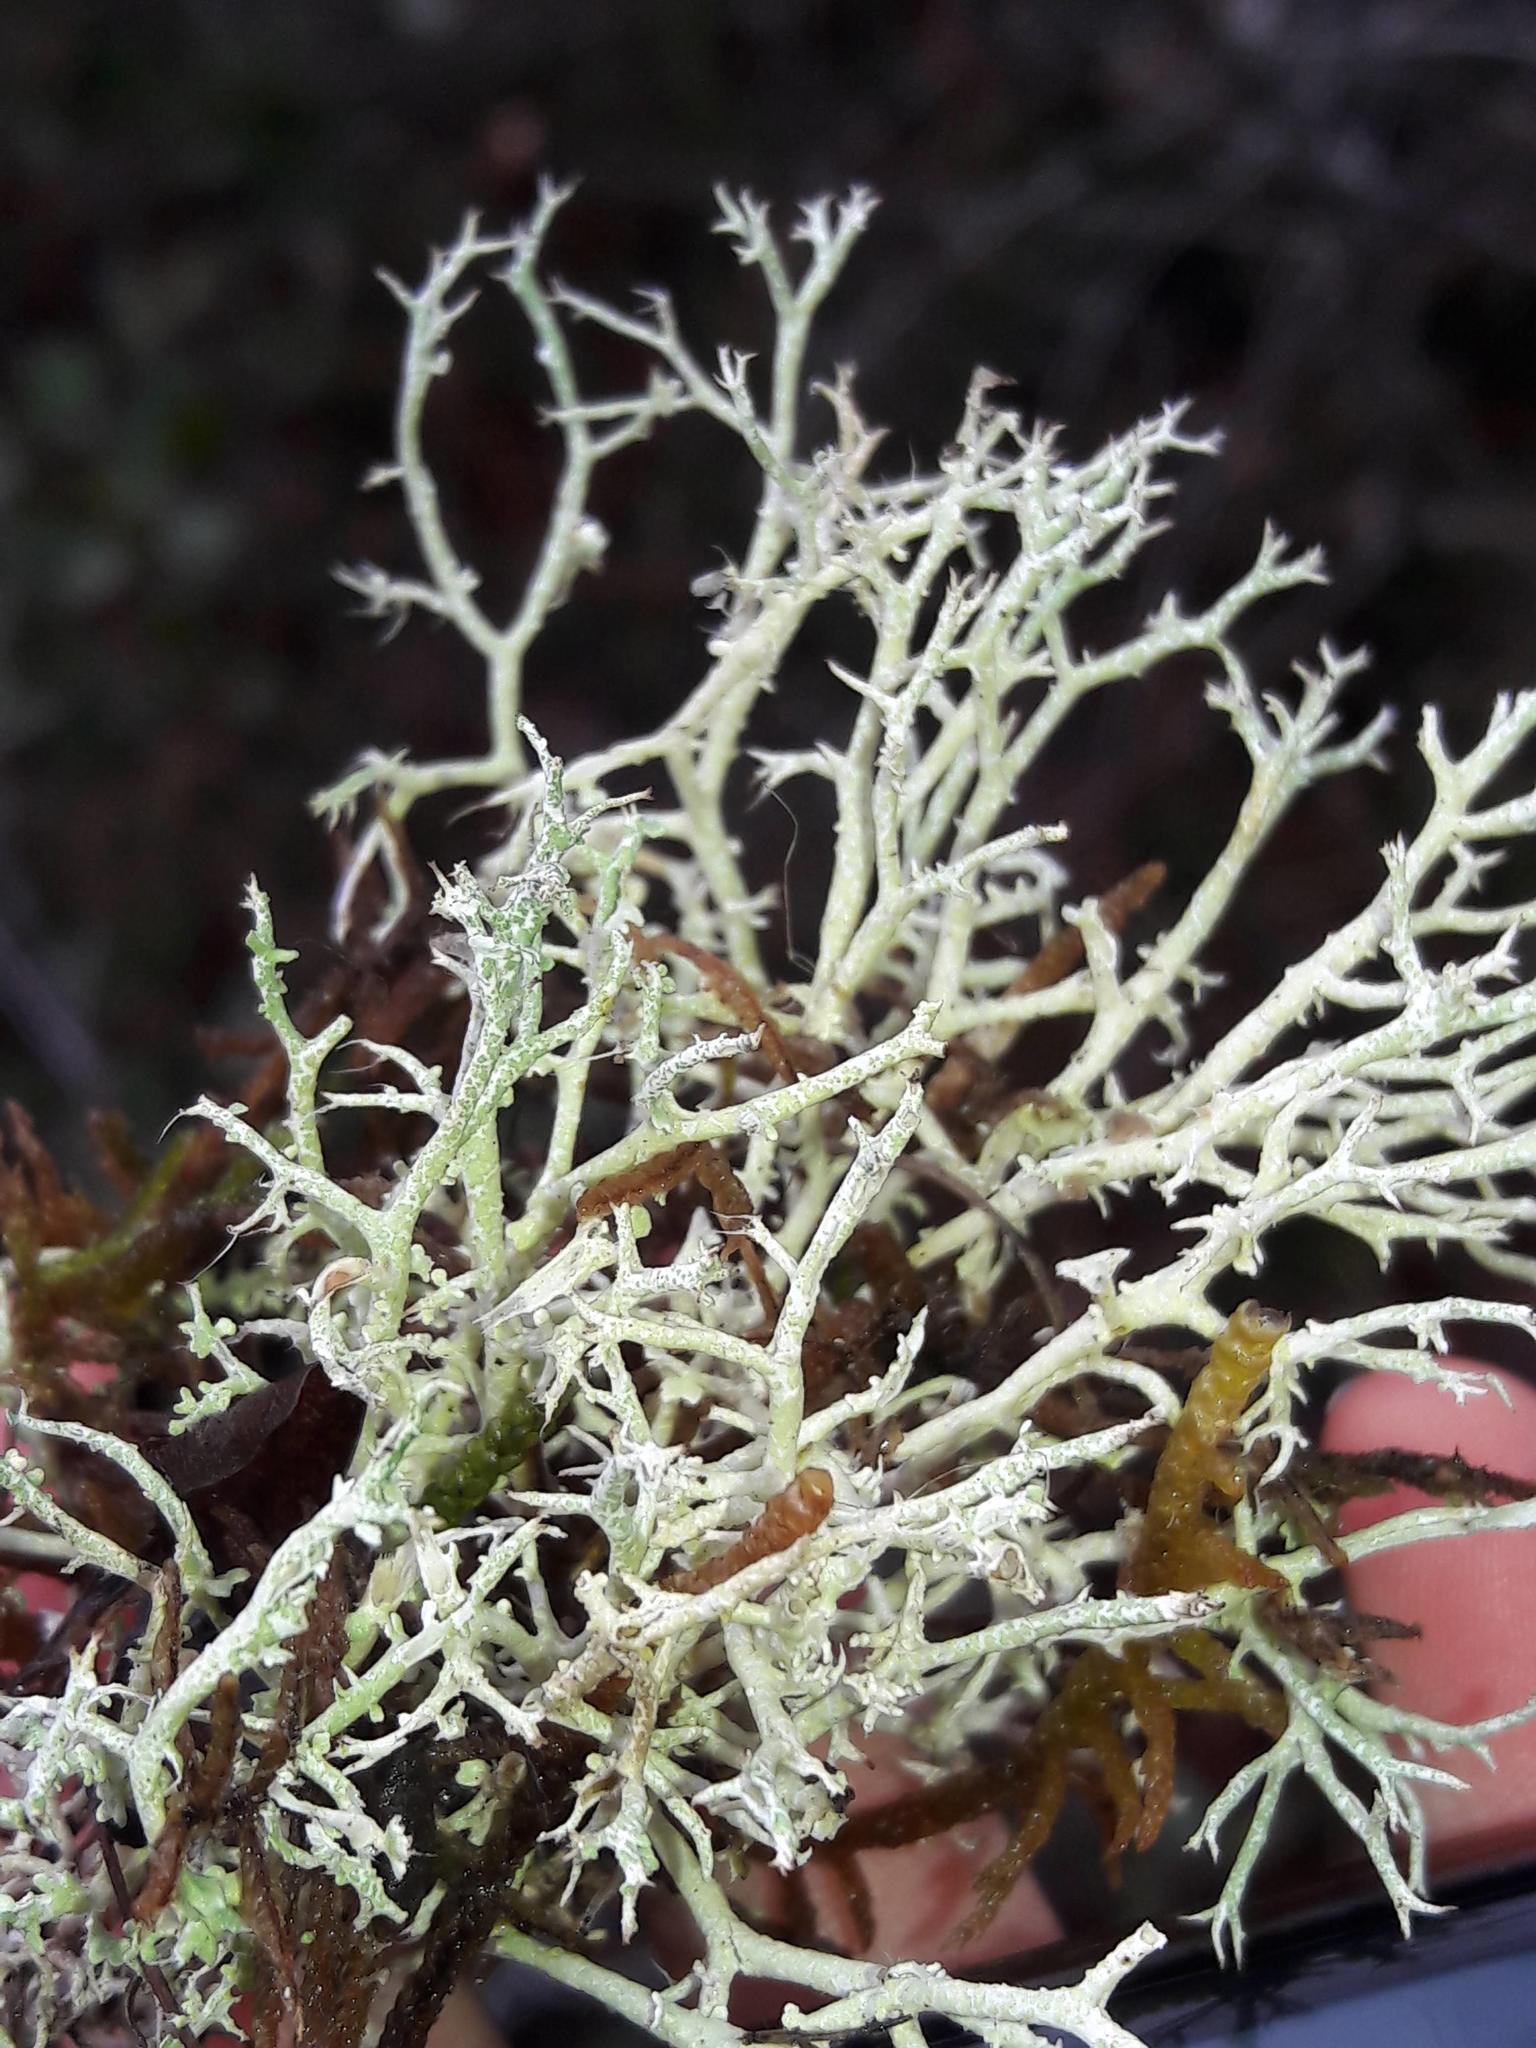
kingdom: Fungi
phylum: Ascomycota
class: Lecanoromycetes
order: Lecanorales
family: Cladoniaceae
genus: Cladonia
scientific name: Cladonia furcata
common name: Many-forked cladonia
